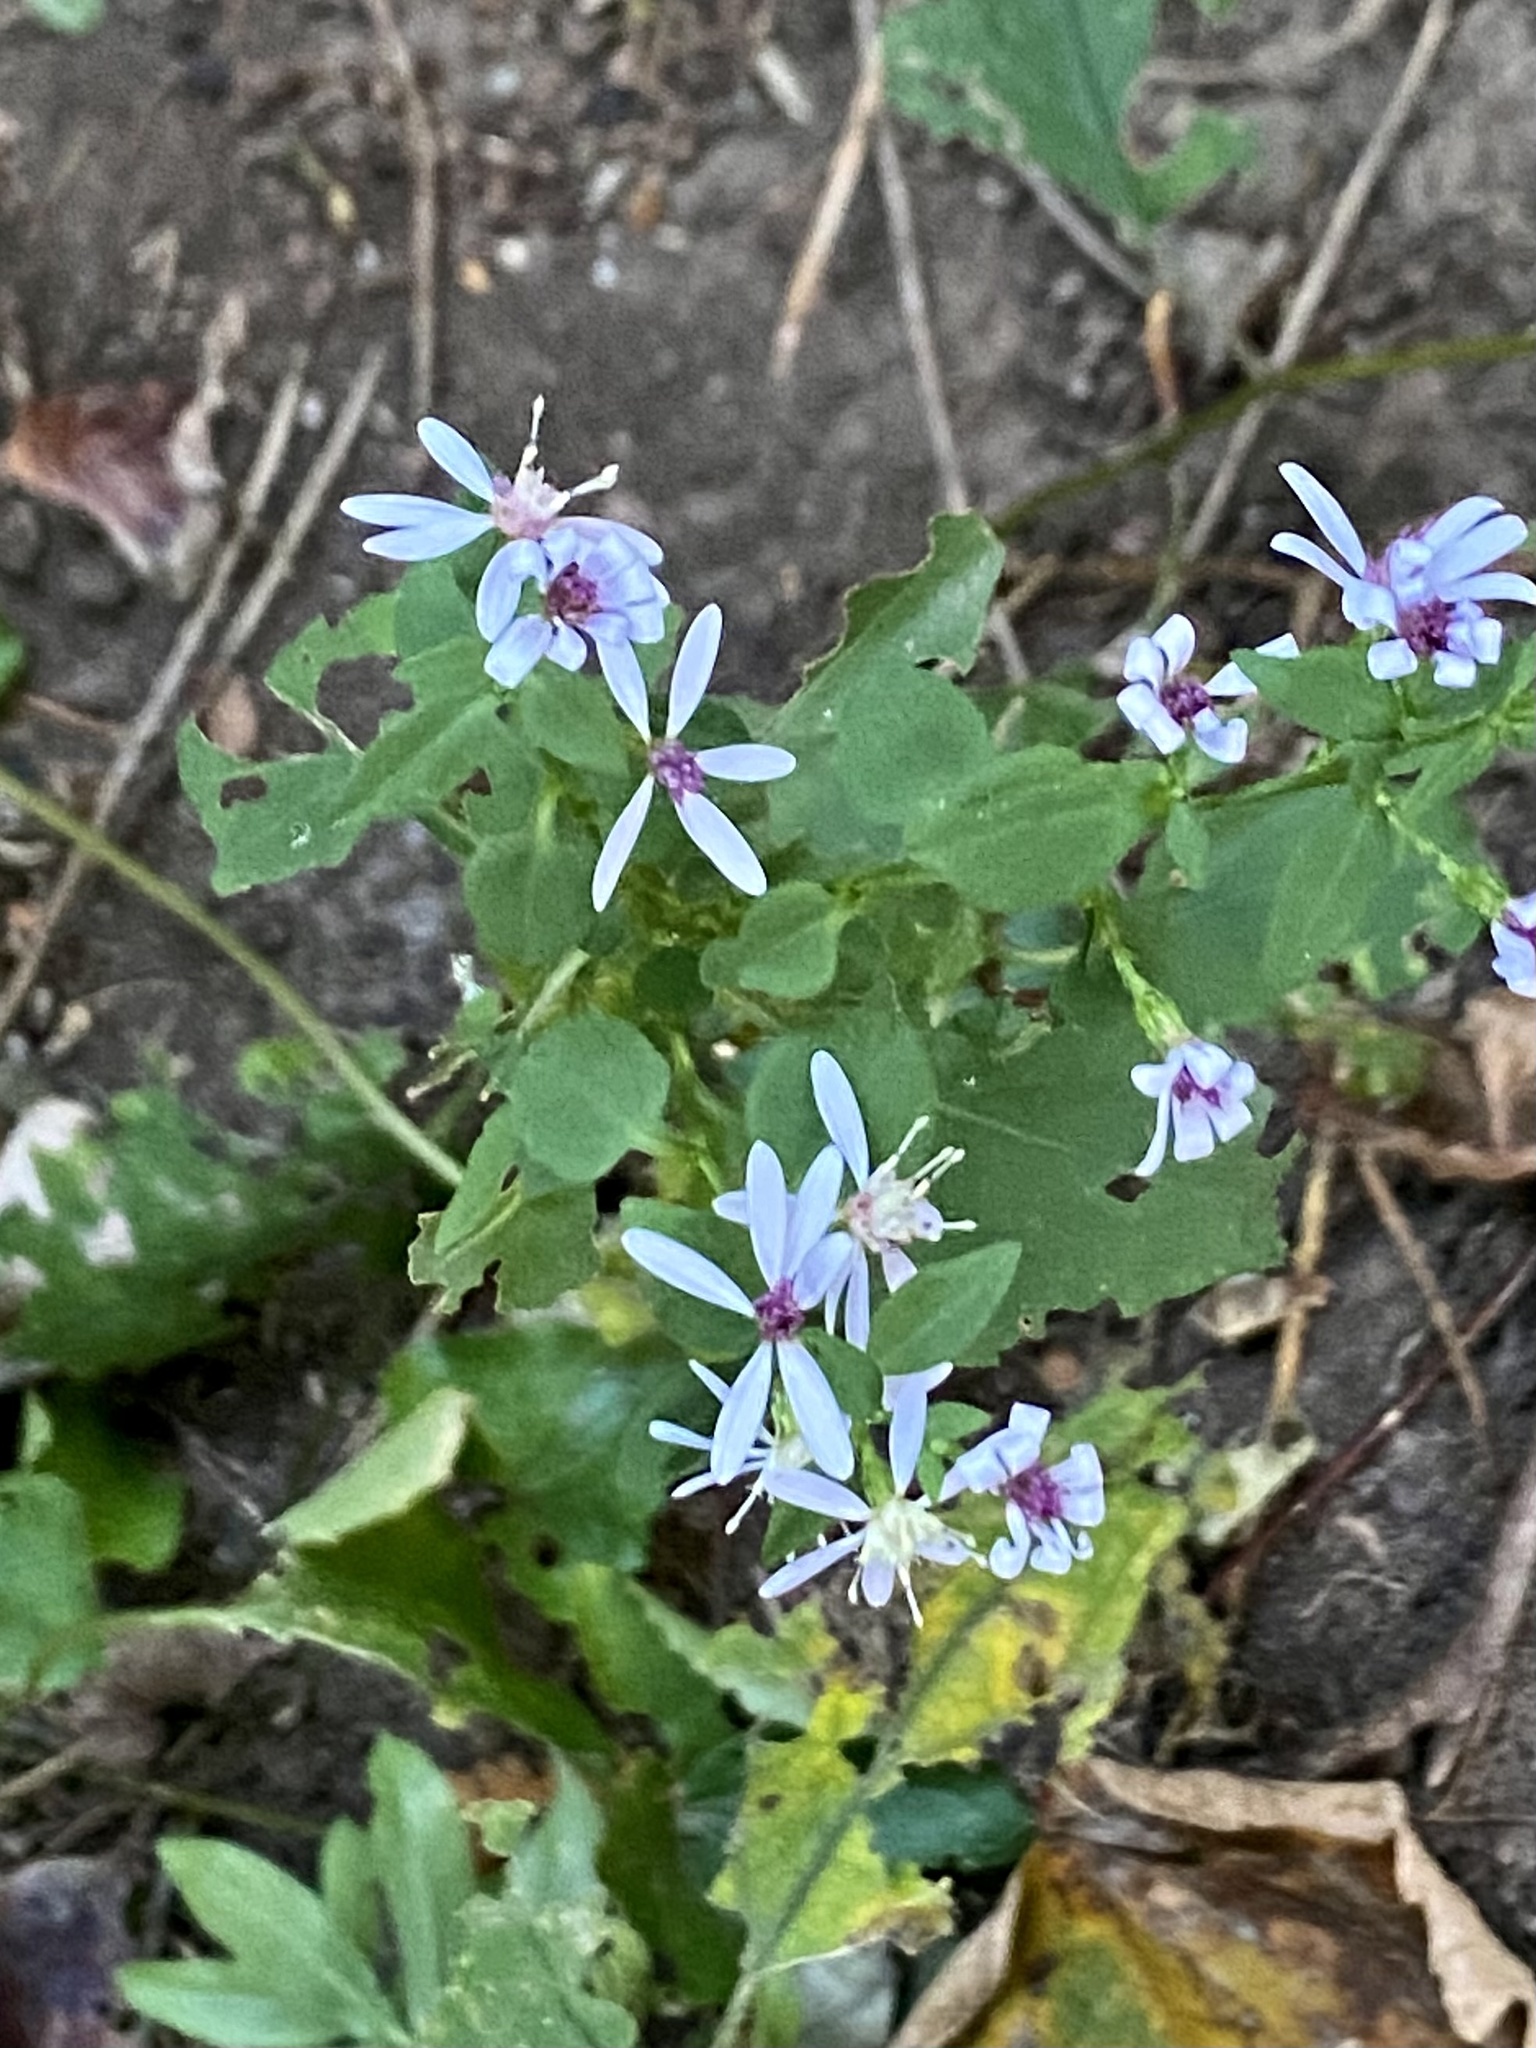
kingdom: Plantae
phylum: Tracheophyta
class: Magnoliopsida
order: Asterales
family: Asteraceae
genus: Symphyotrichum
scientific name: Symphyotrichum cordifolium
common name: Beeweed
